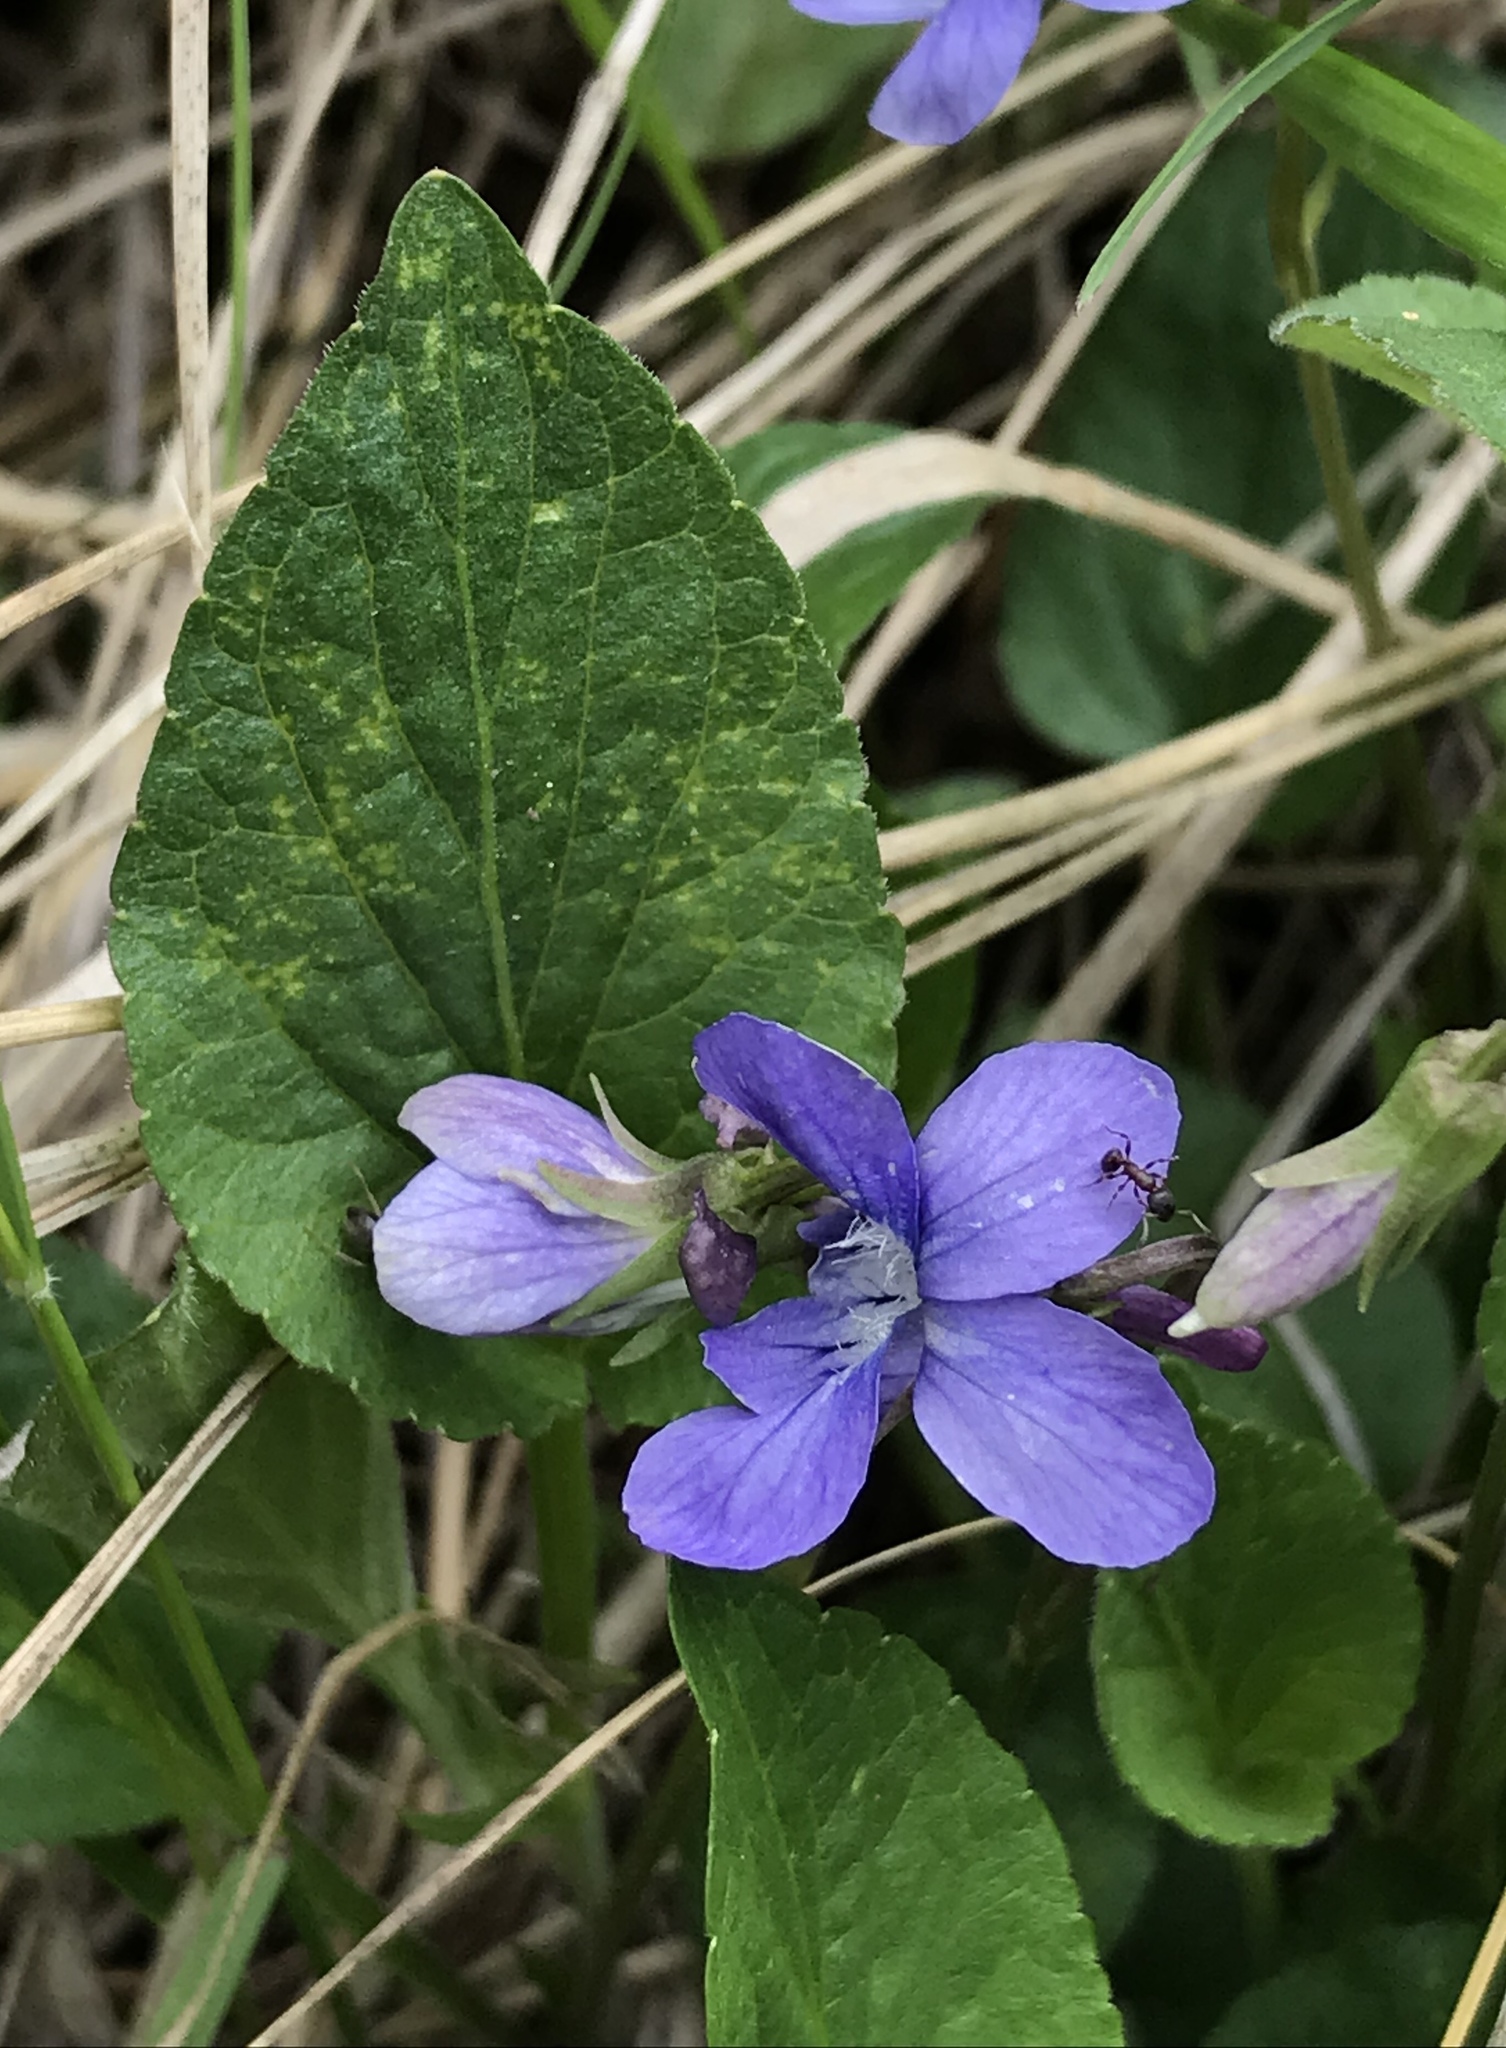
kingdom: Plantae
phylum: Tracheophyta
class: Magnoliopsida
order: Malpighiales
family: Violaceae
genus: Viola
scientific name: Viola adunca
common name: Sand violet
